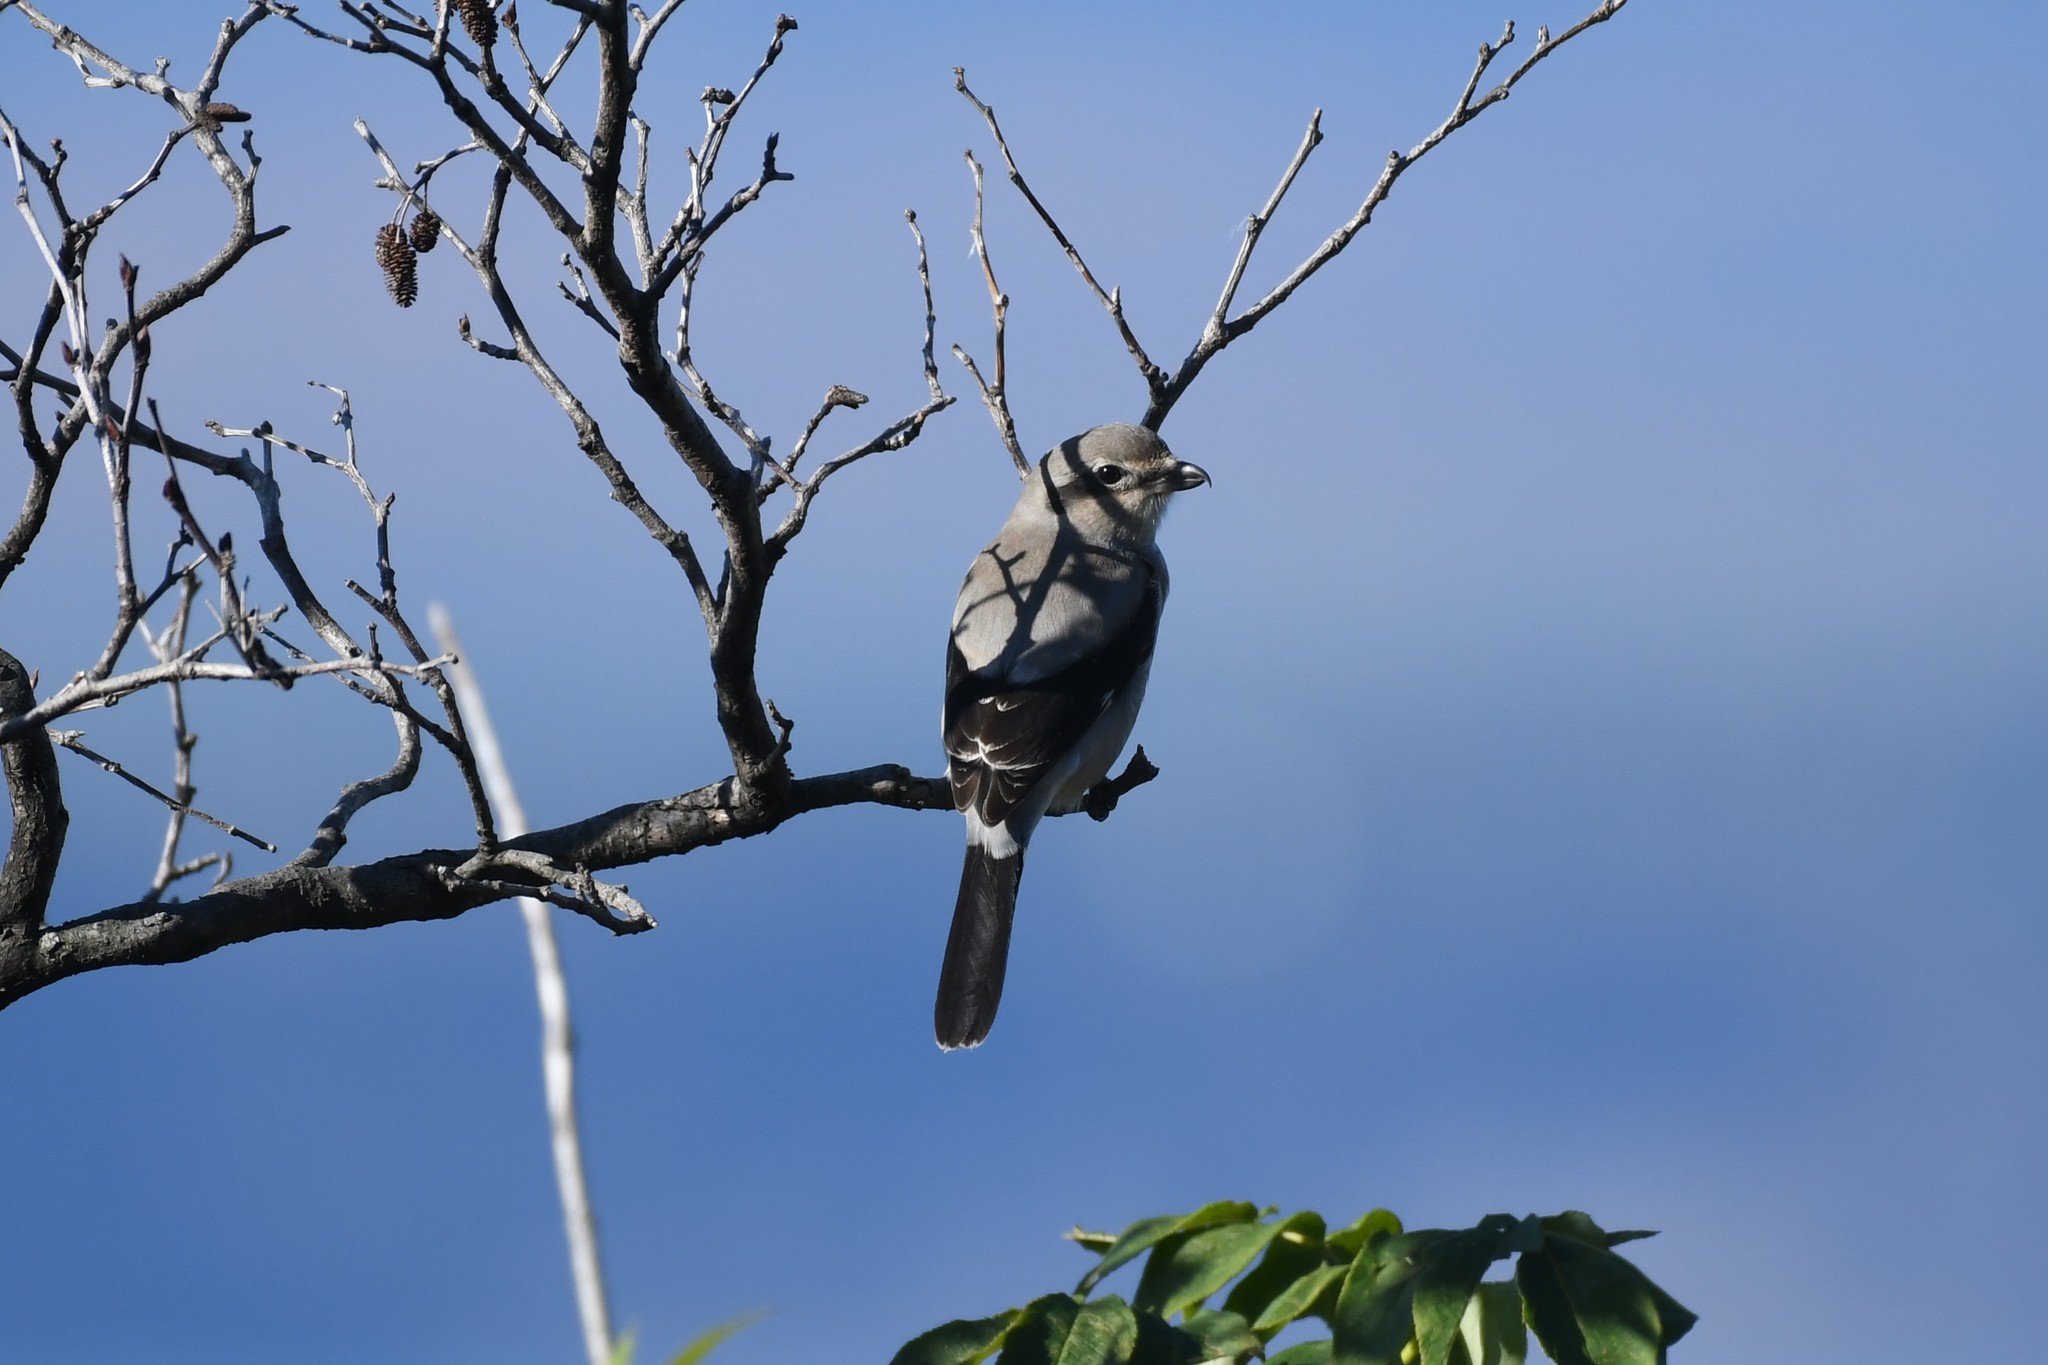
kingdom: Animalia
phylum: Chordata
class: Aves
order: Passeriformes
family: Laniidae
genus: Lanius
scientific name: Lanius borealis
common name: Northern shrike
